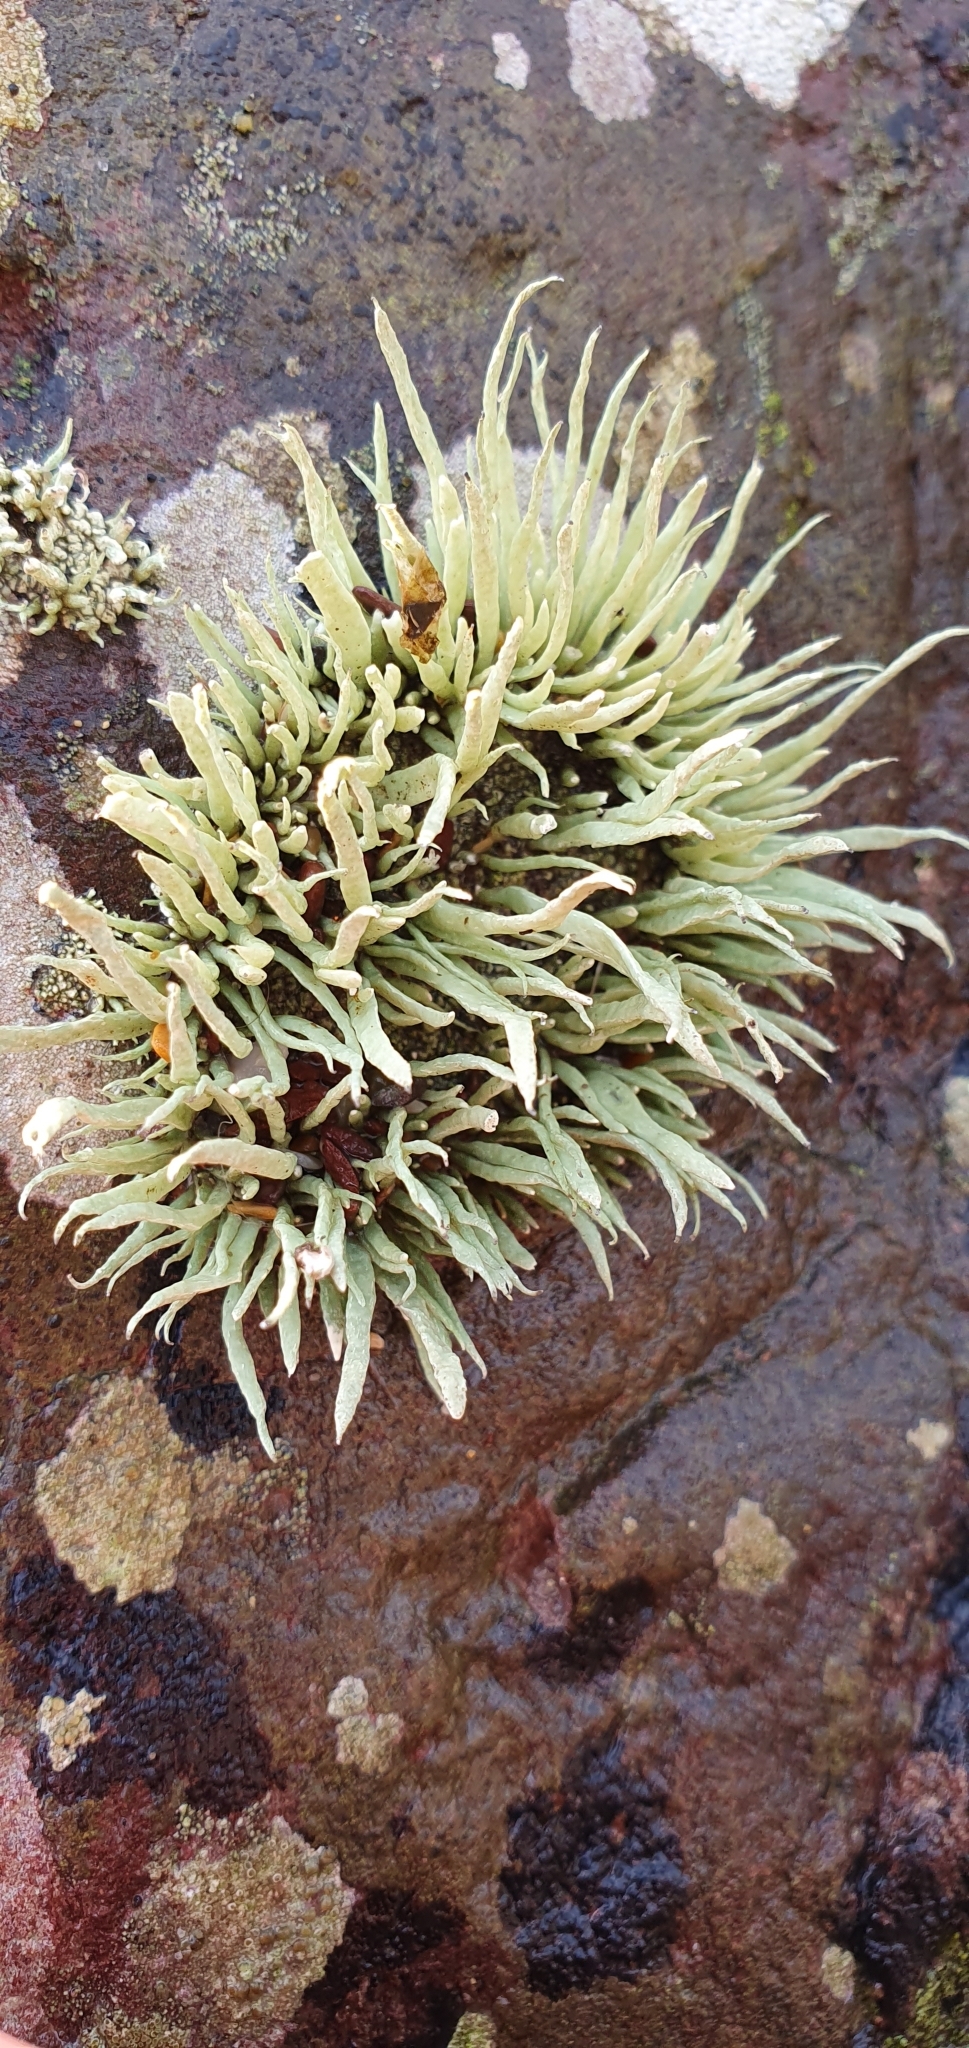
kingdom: Fungi
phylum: Ascomycota
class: Lecanoromycetes
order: Lecanorales
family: Ramalinaceae
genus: Ramalina
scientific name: Ramalina siliquosa
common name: Sea ivory
